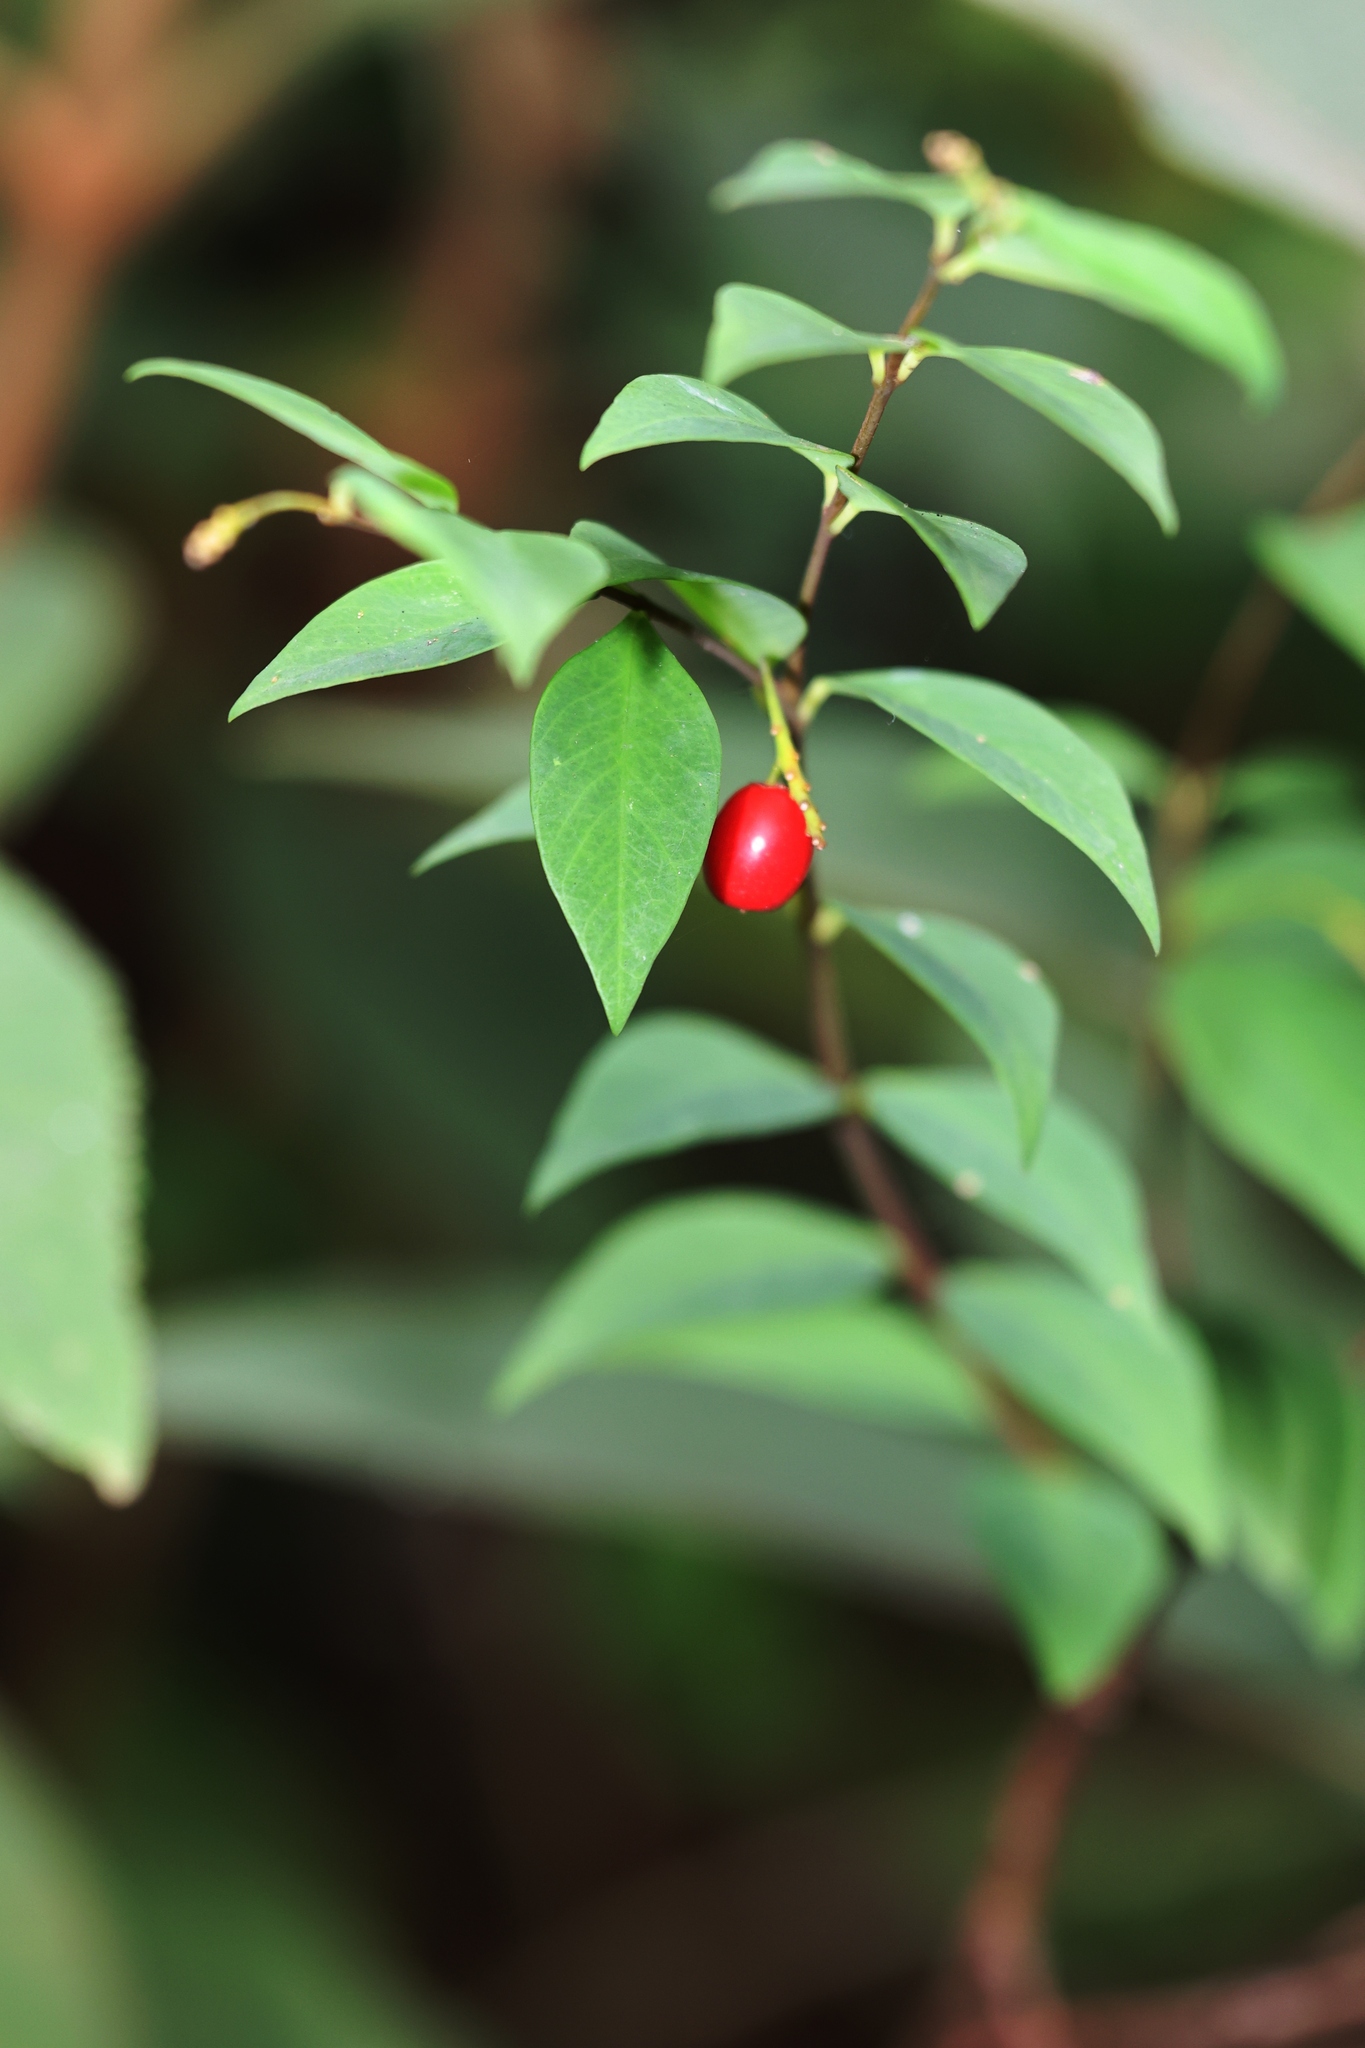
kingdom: Plantae
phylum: Tracheophyta
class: Magnoliopsida
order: Malvales
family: Thymelaeaceae
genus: Wikstroemia
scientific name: Wikstroemia nutans
